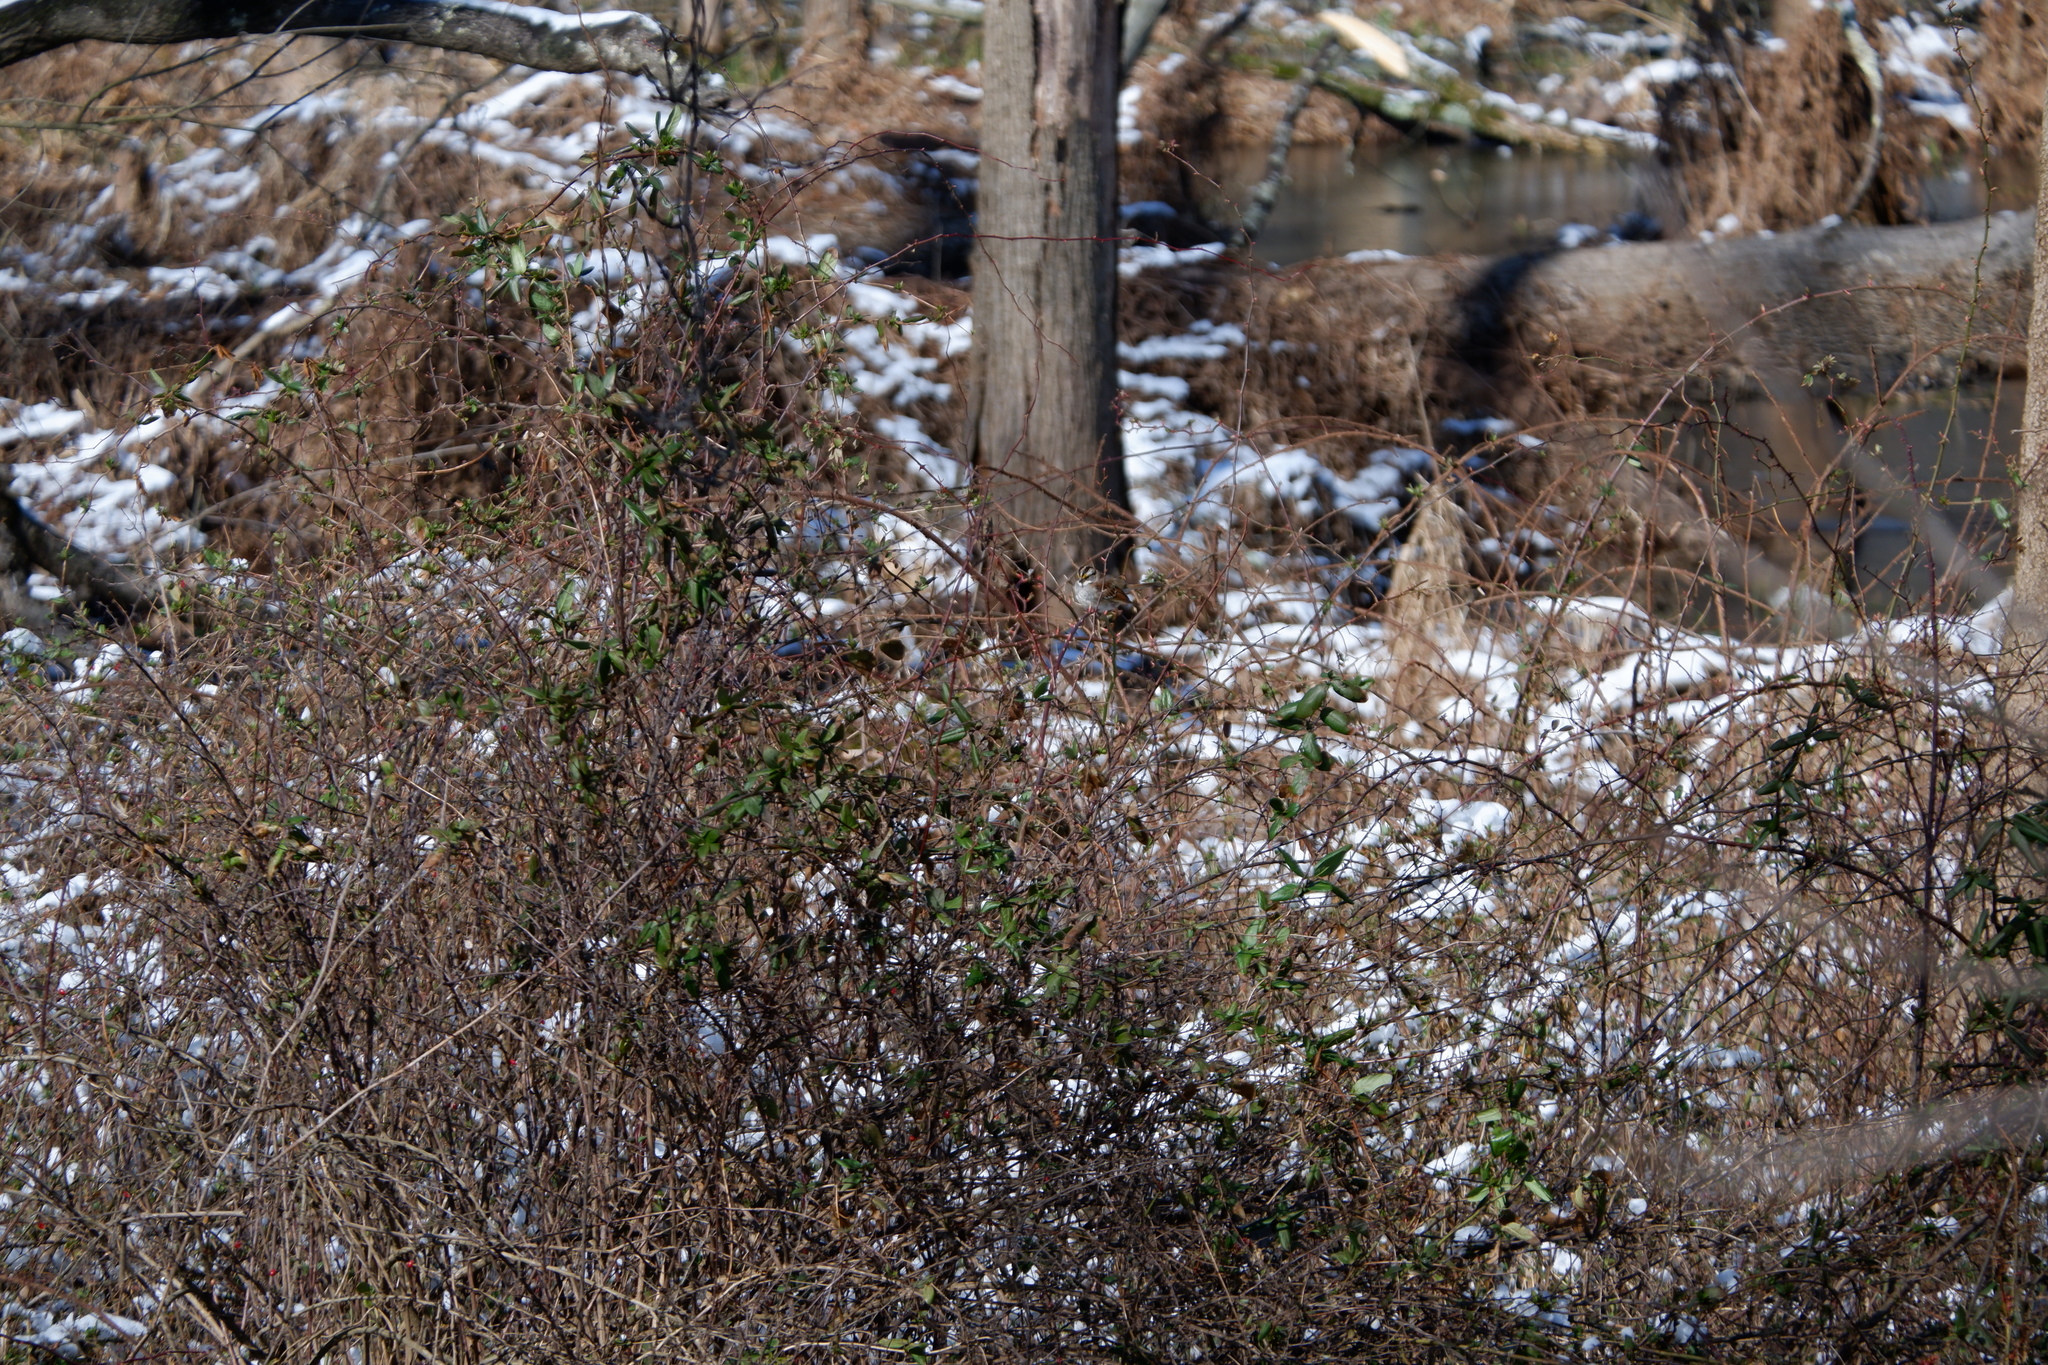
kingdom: Animalia
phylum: Chordata
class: Aves
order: Passeriformes
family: Passerellidae
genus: Zonotrichia
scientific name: Zonotrichia albicollis
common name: White-throated sparrow
